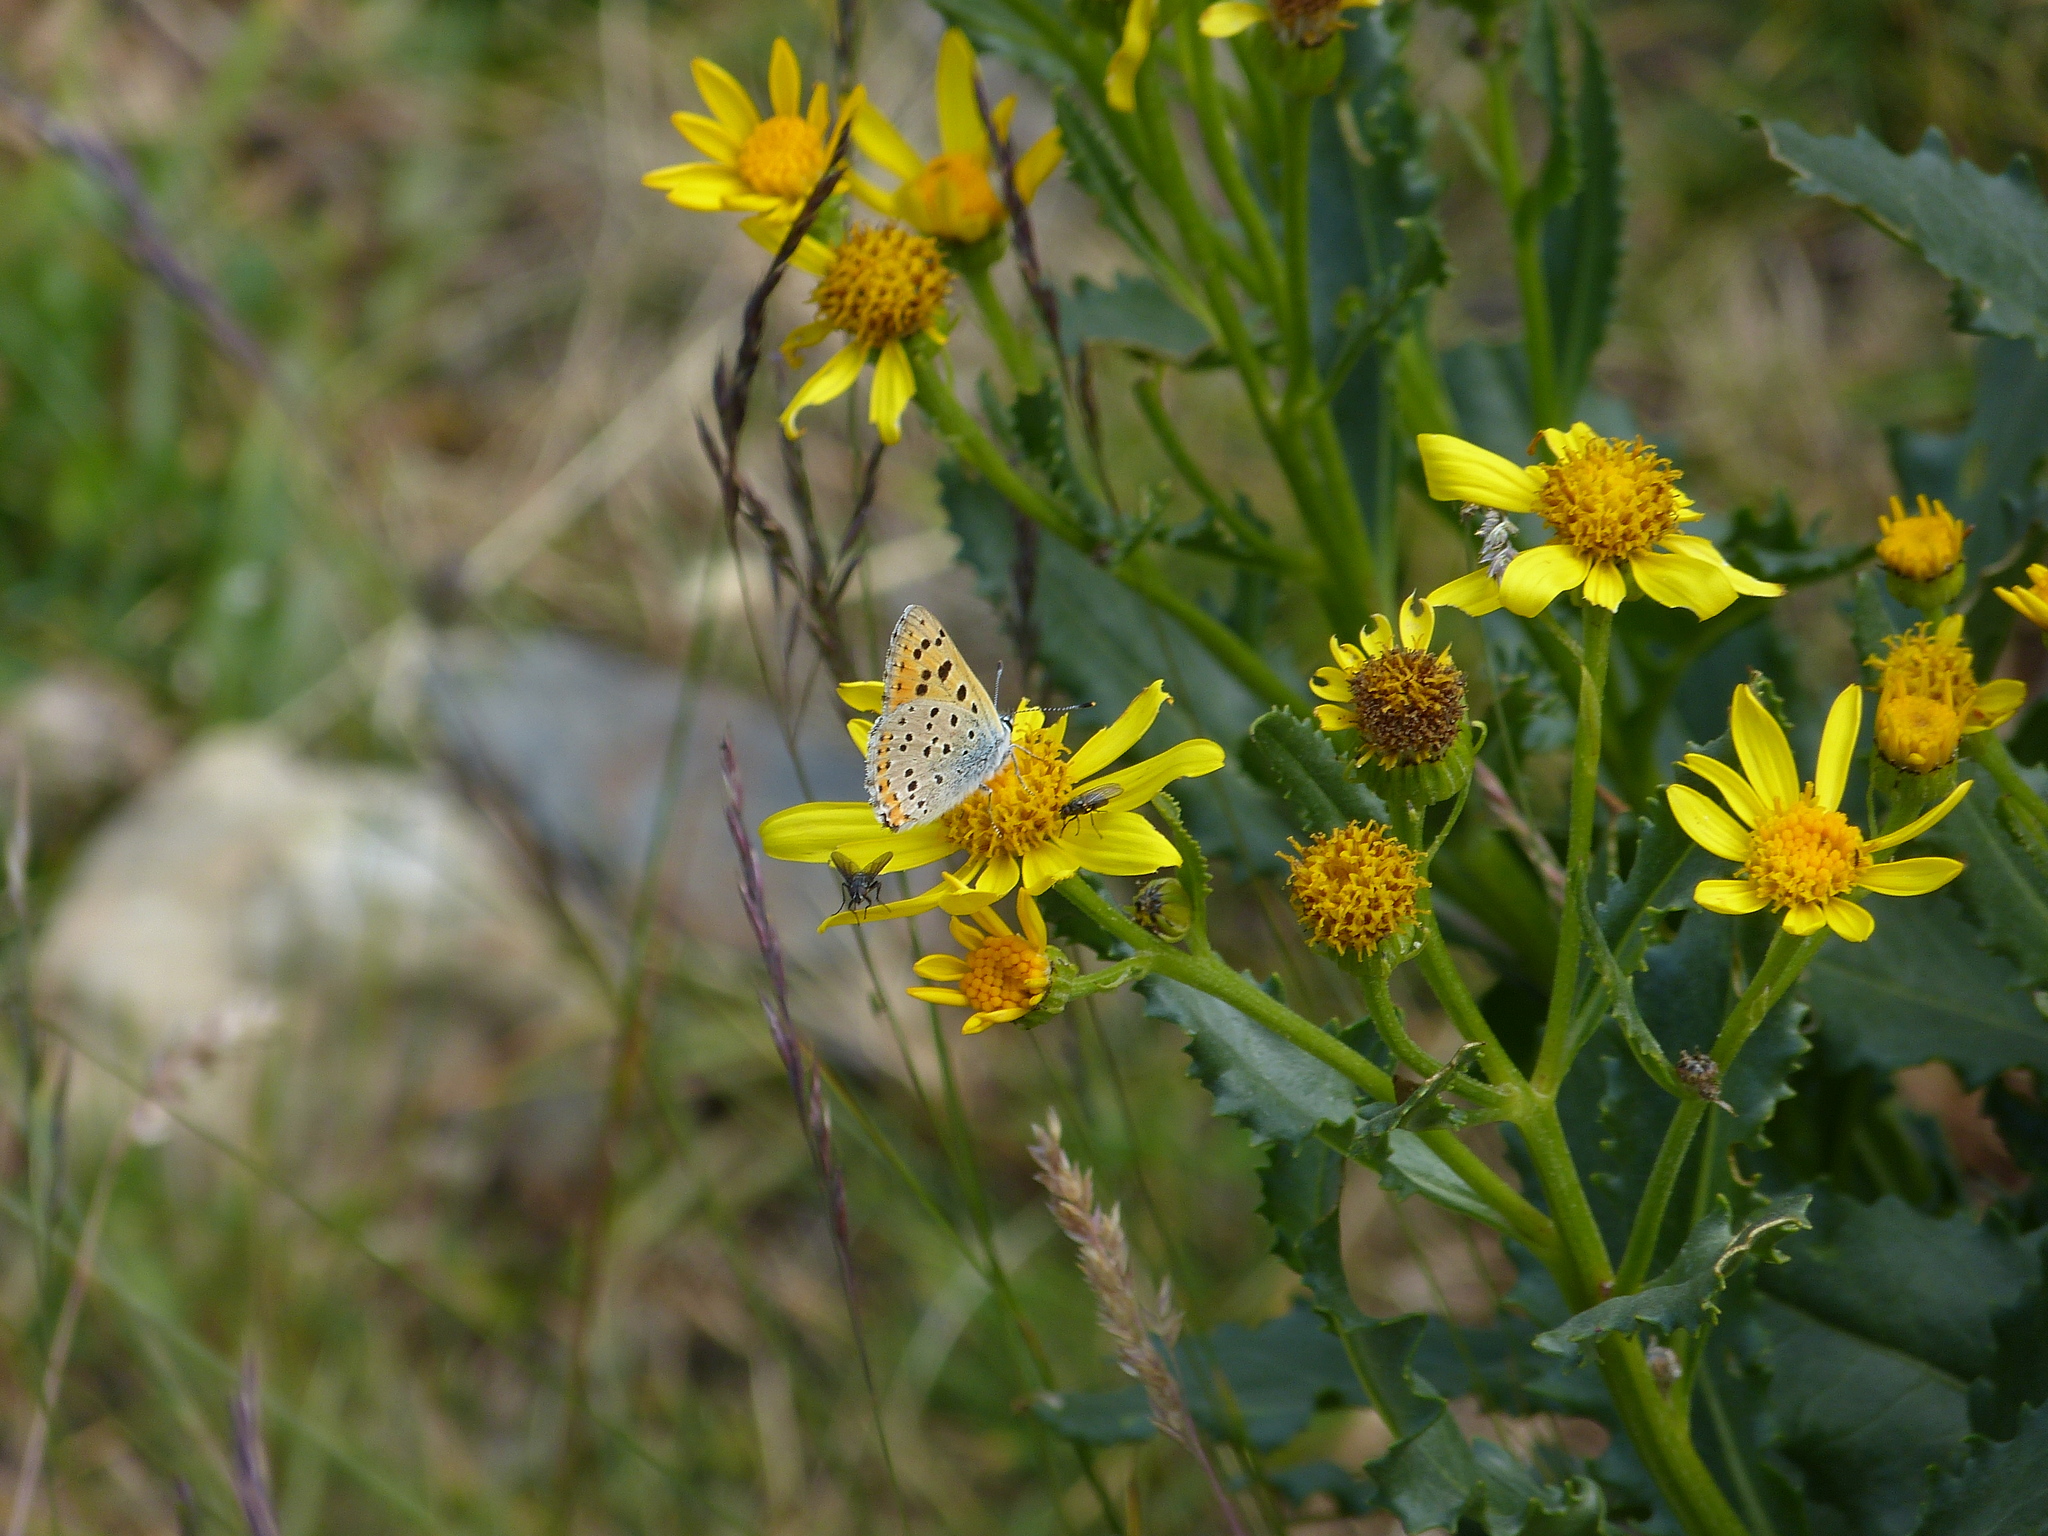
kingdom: Animalia
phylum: Arthropoda
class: Insecta
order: Lepidoptera
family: Lycaenidae
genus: Lycaena
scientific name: Lycaena alciphron
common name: Purple-shot copper
